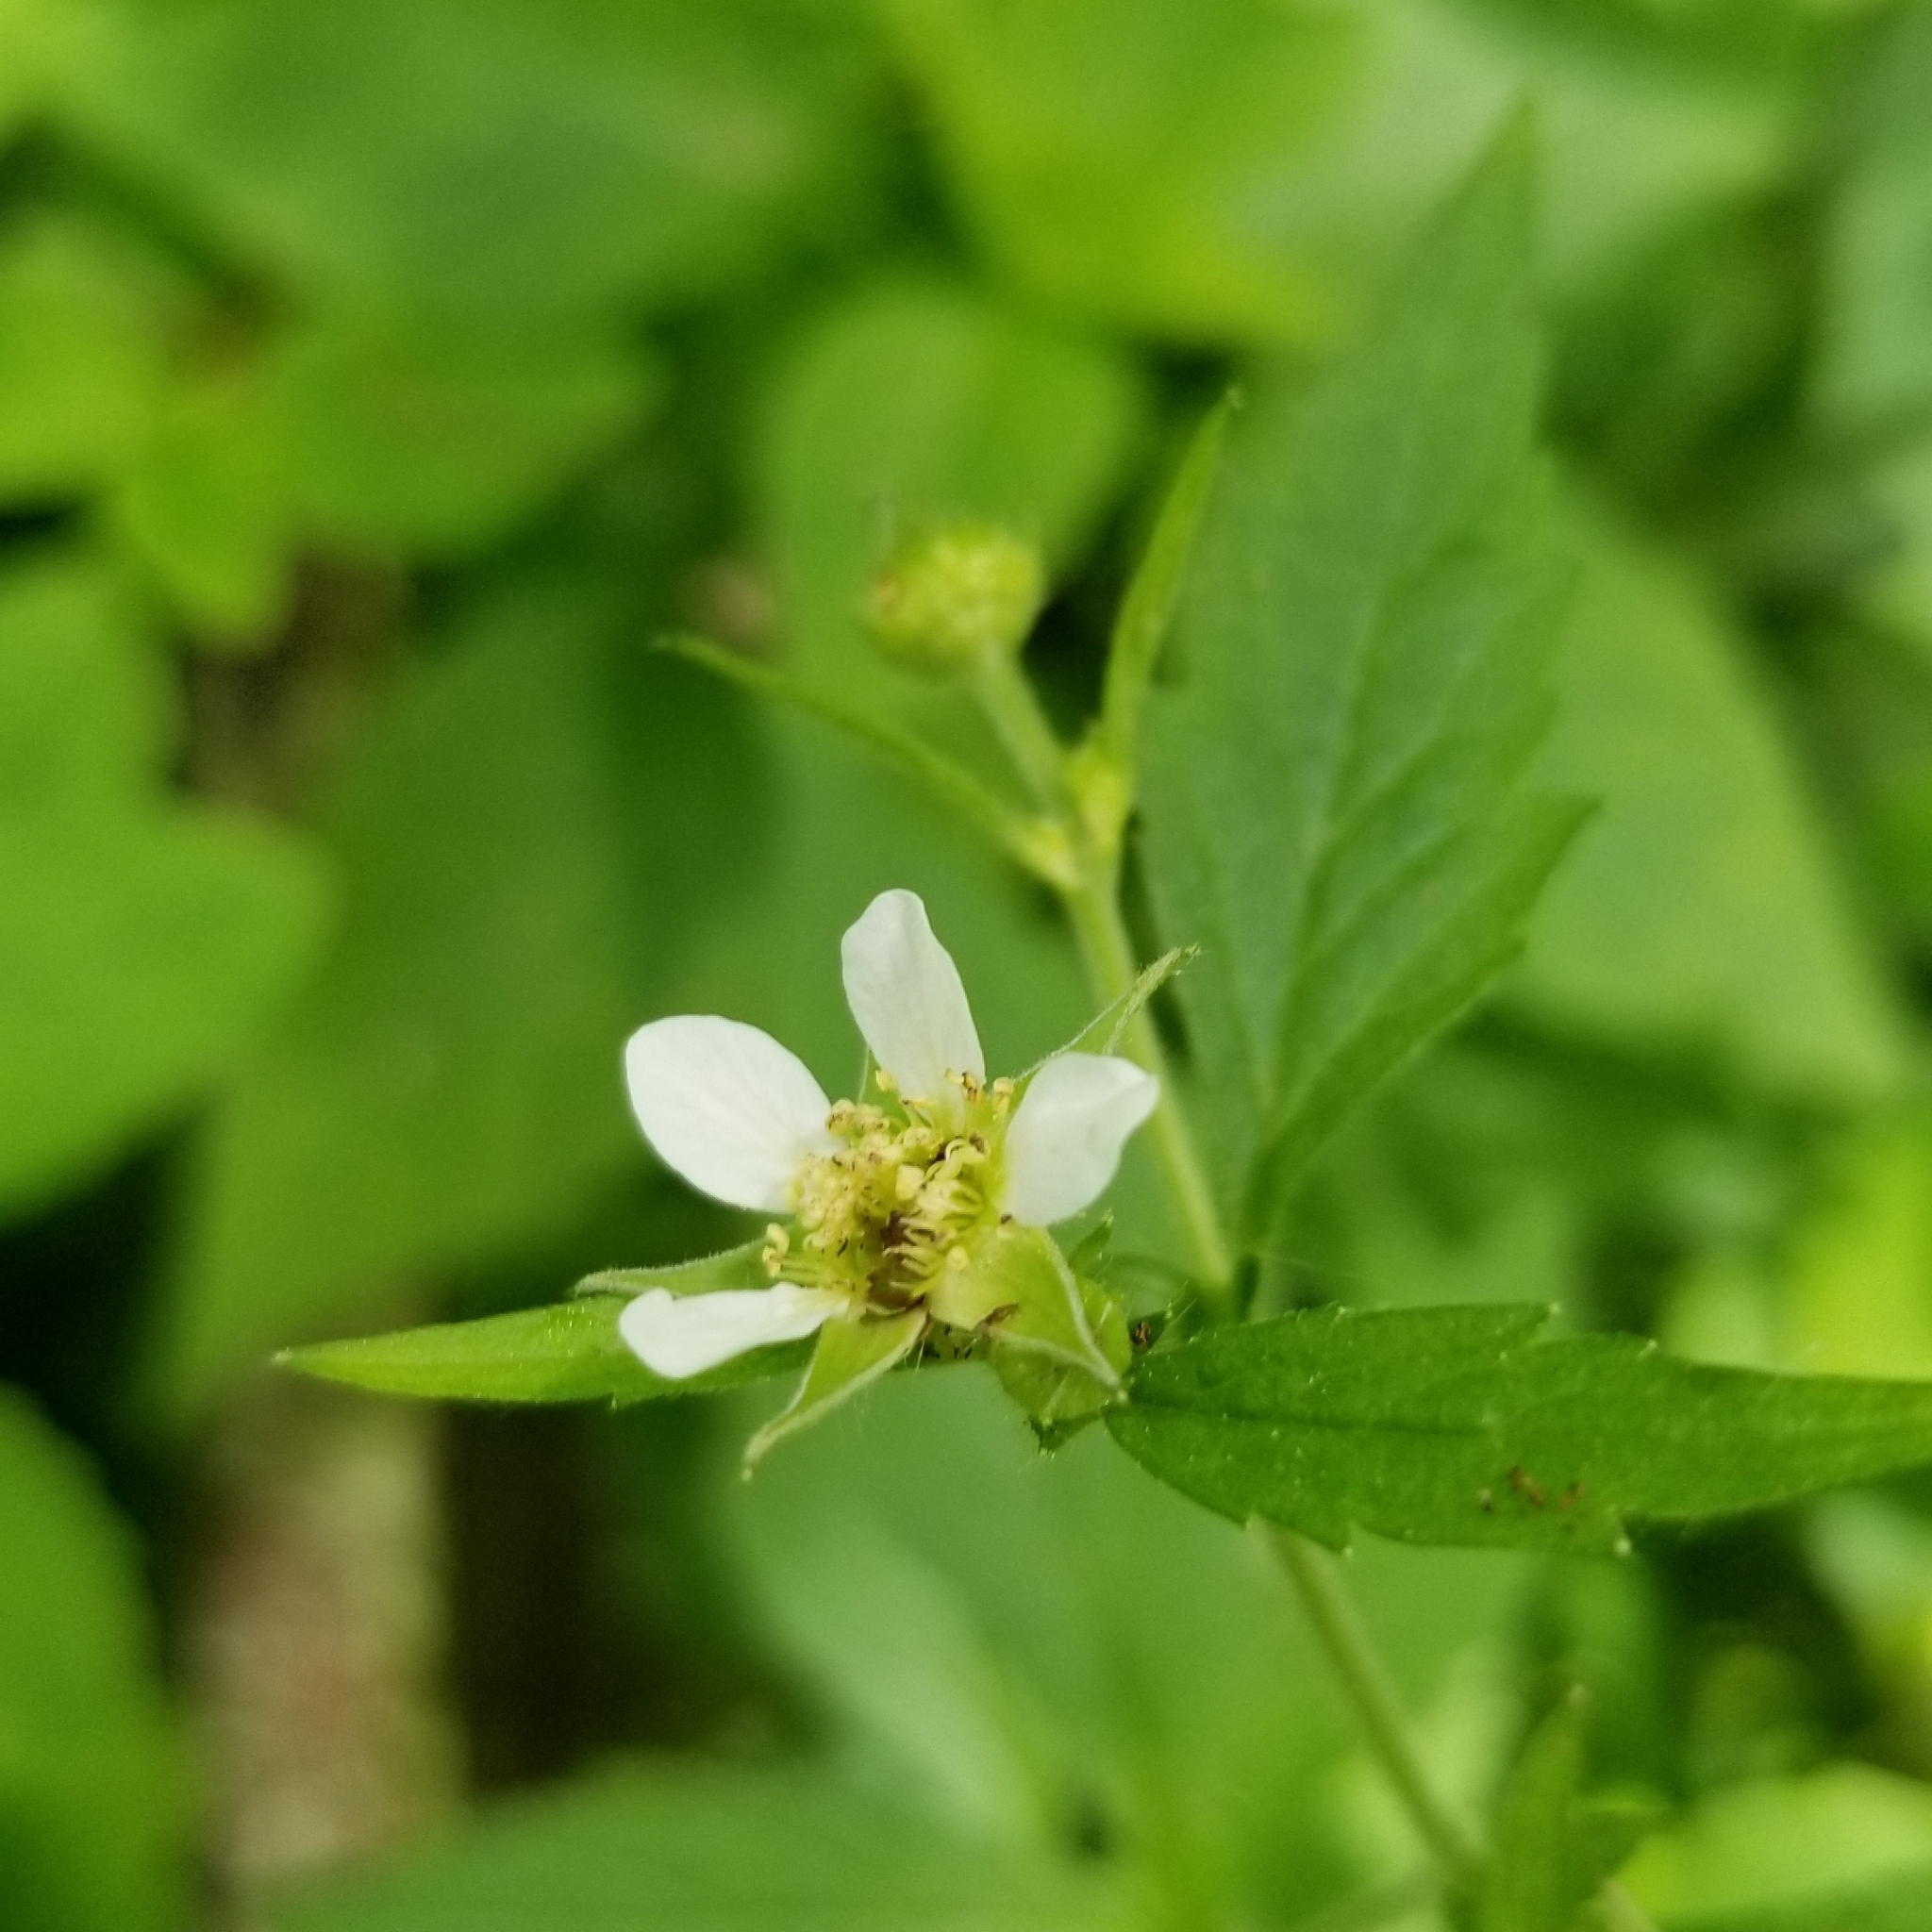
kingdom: Plantae
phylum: Tracheophyta
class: Magnoliopsida
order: Rosales
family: Rosaceae
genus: Geum
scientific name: Geum canadense
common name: White avens
